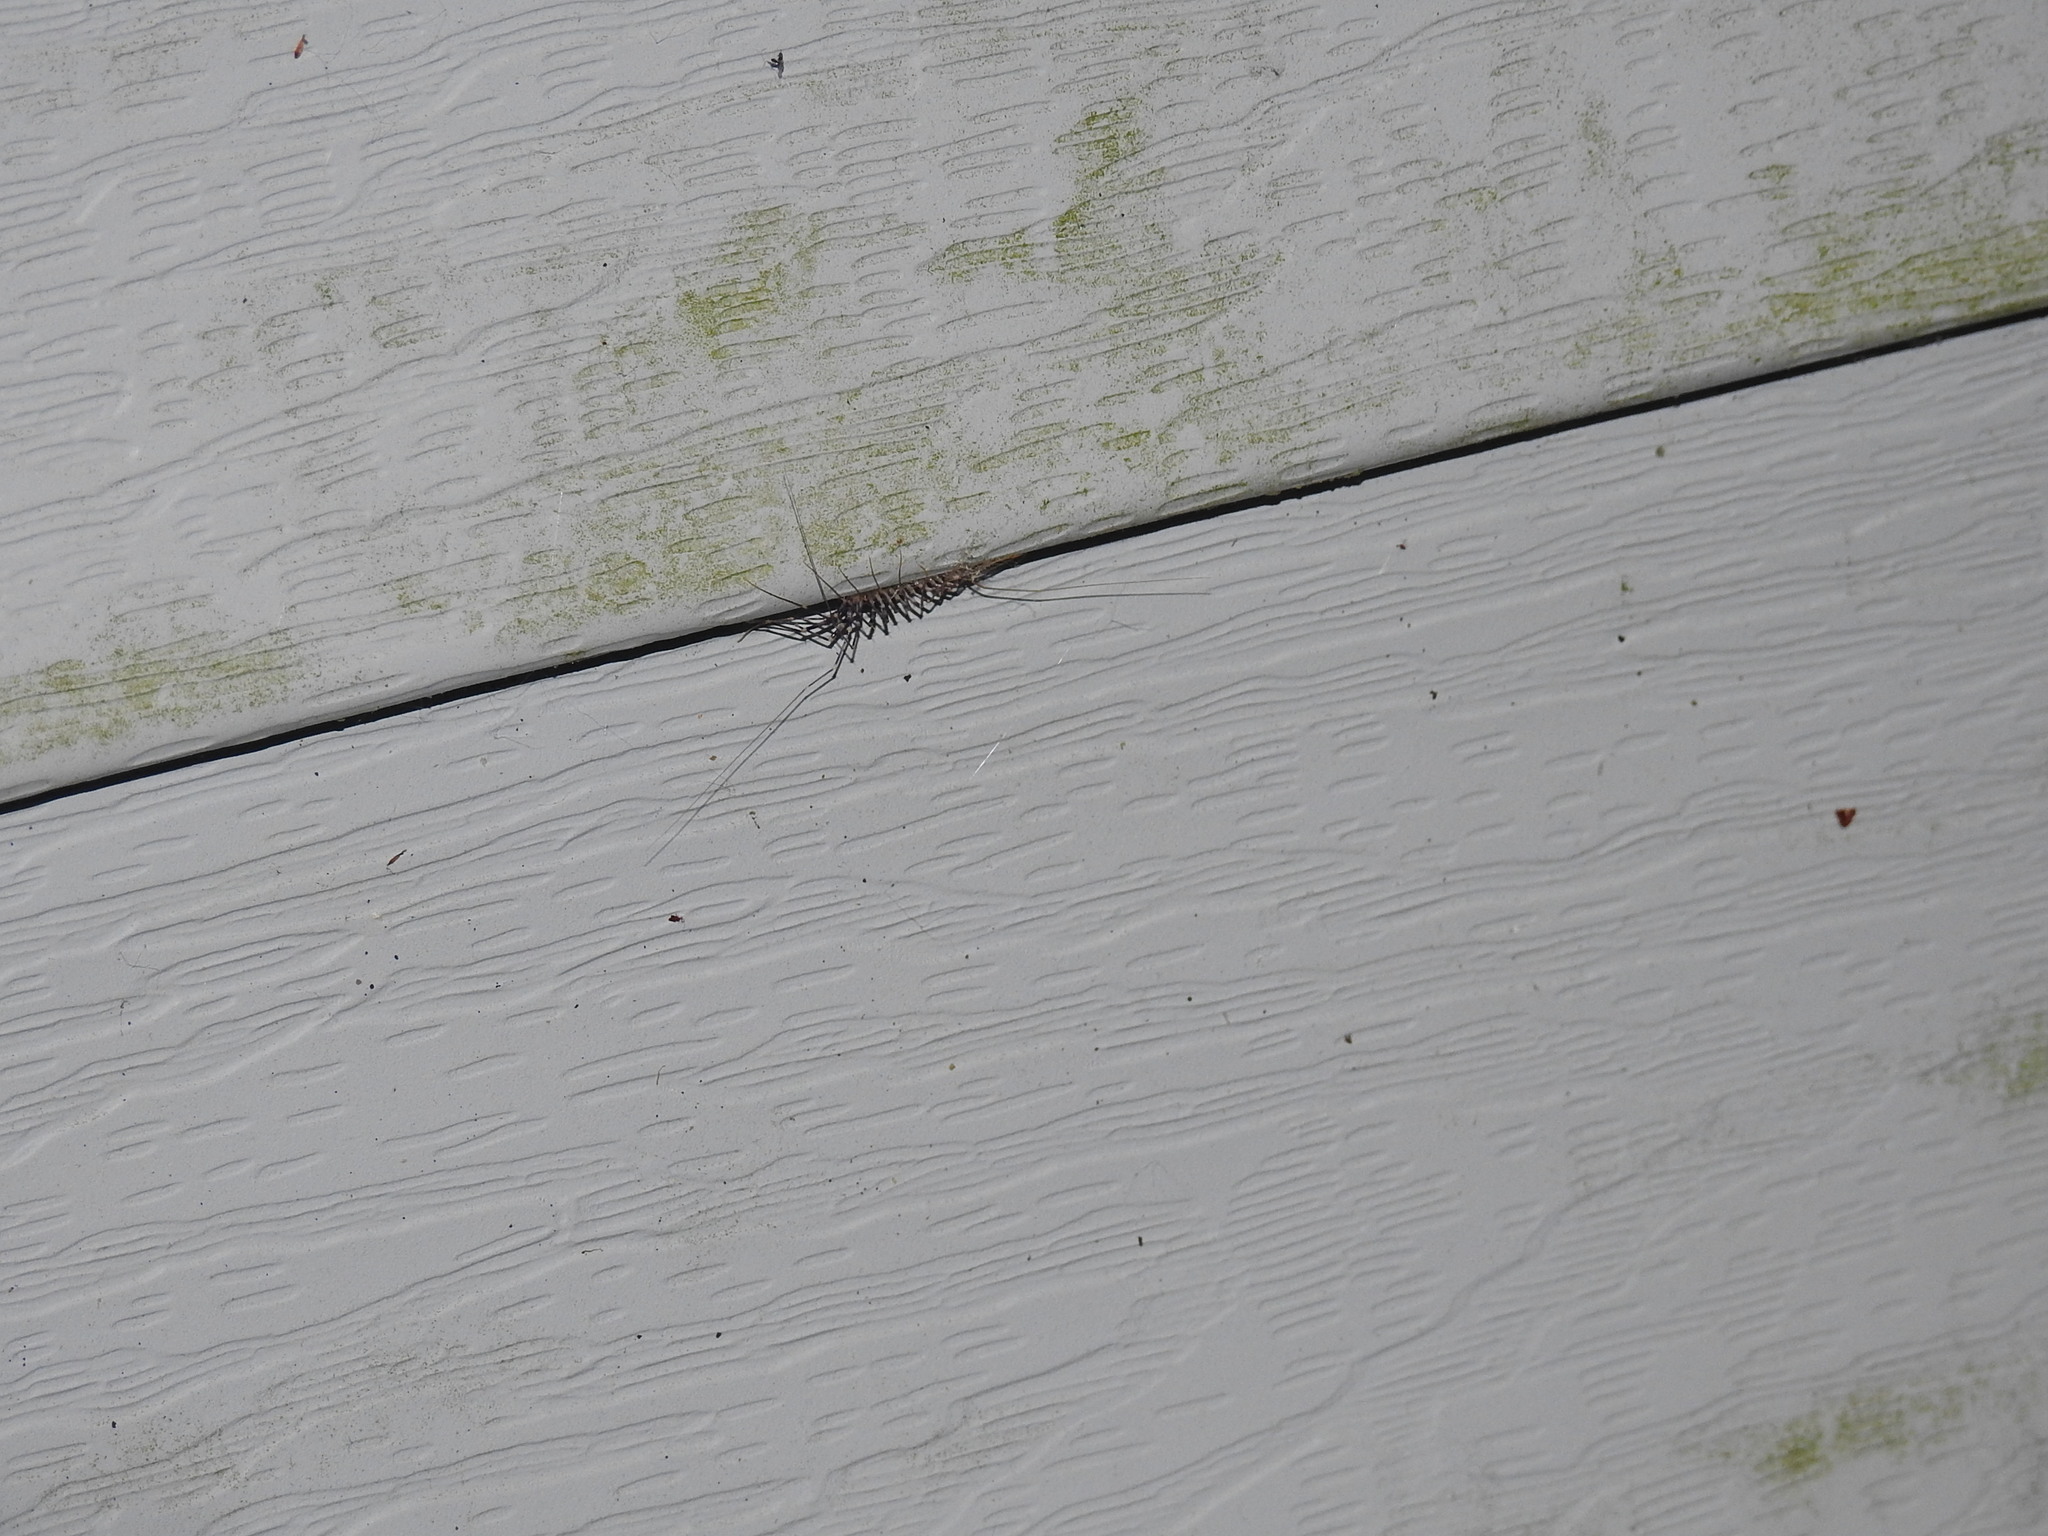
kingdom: Animalia
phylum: Arthropoda
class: Chilopoda
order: Scutigeromorpha
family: Scutigeridae
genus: Scutigera
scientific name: Scutigera coleoptrata
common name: House centipede
